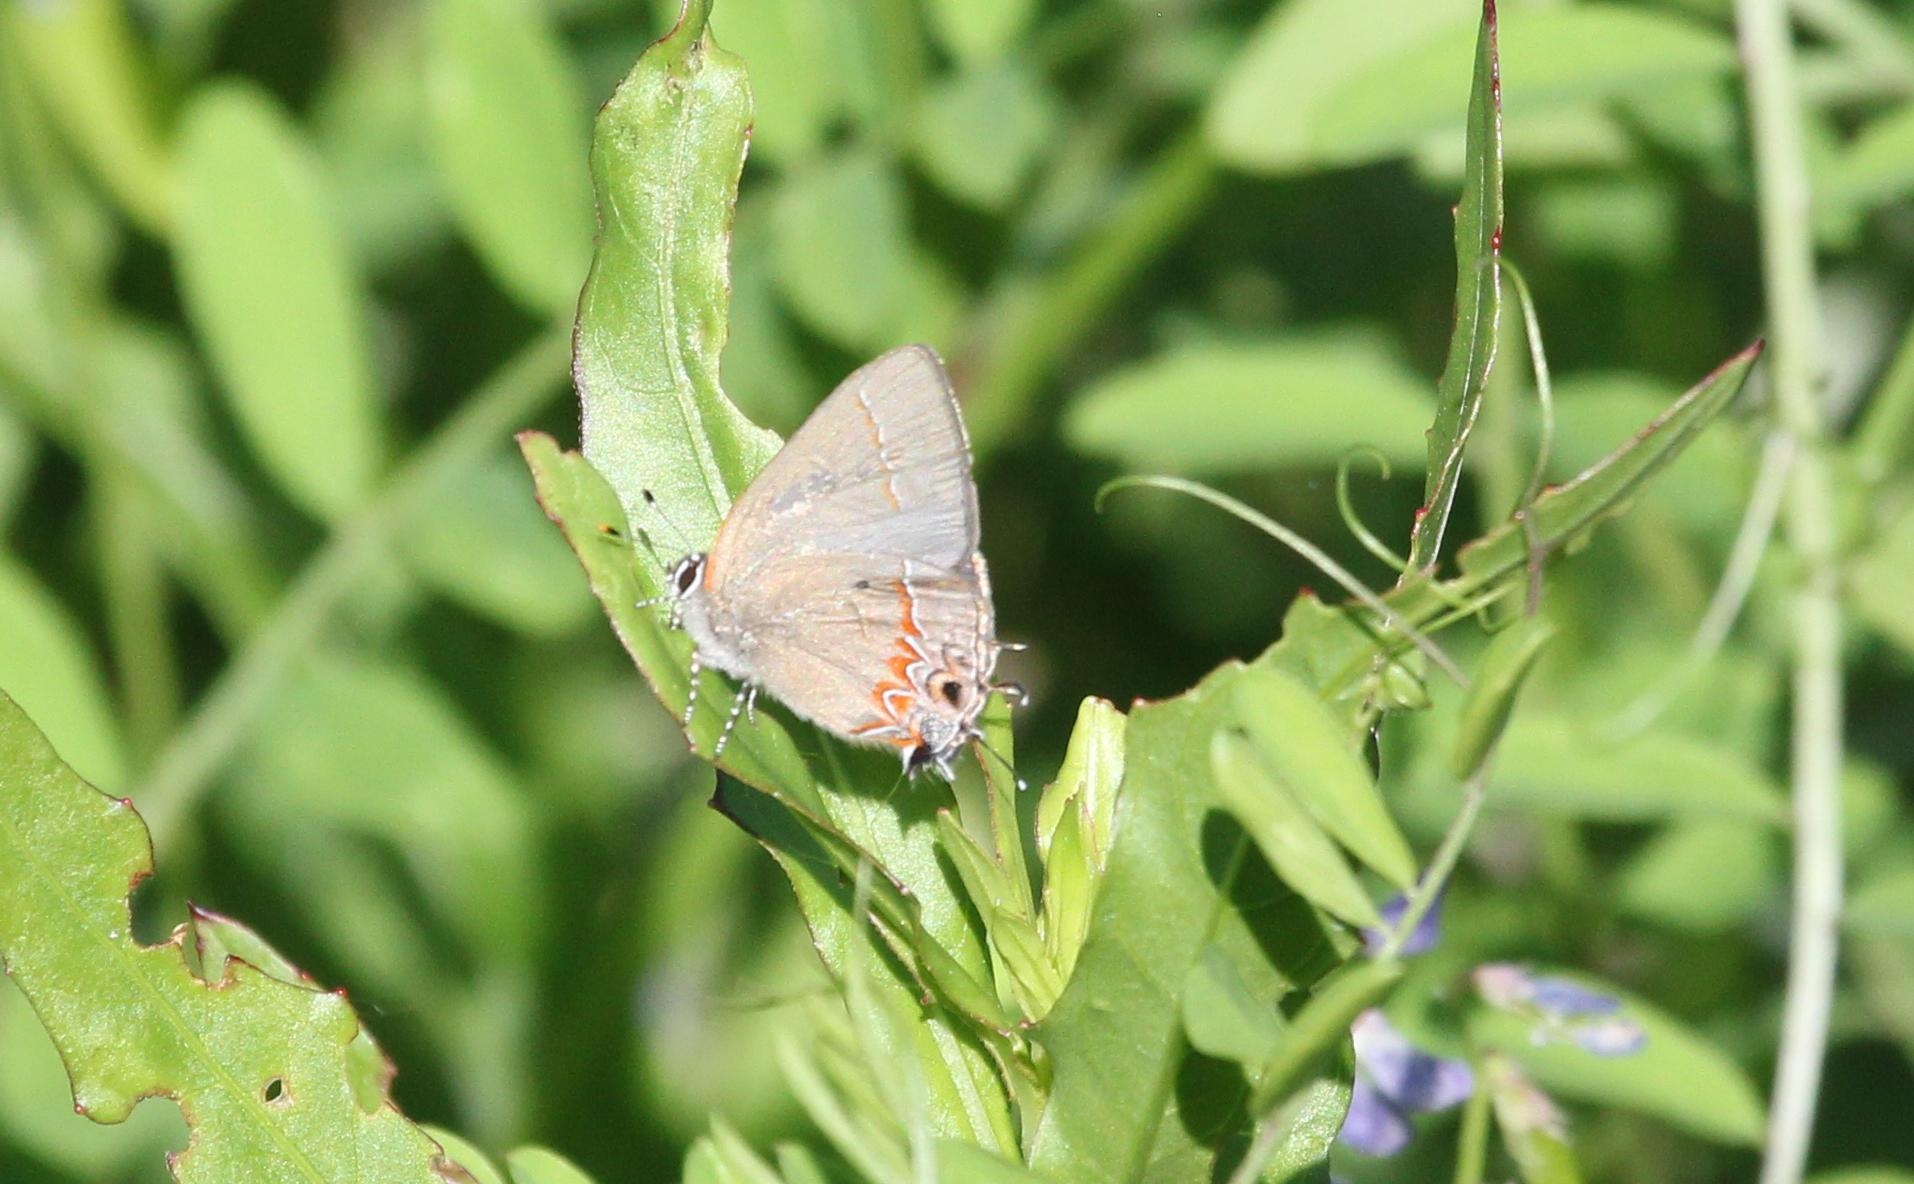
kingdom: Animalia
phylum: Arthropoda
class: Insecta
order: Lepidoptera
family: Lycaenidae
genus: Calycopis
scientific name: Calycopis cecrops
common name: Red-banded hairstreak
